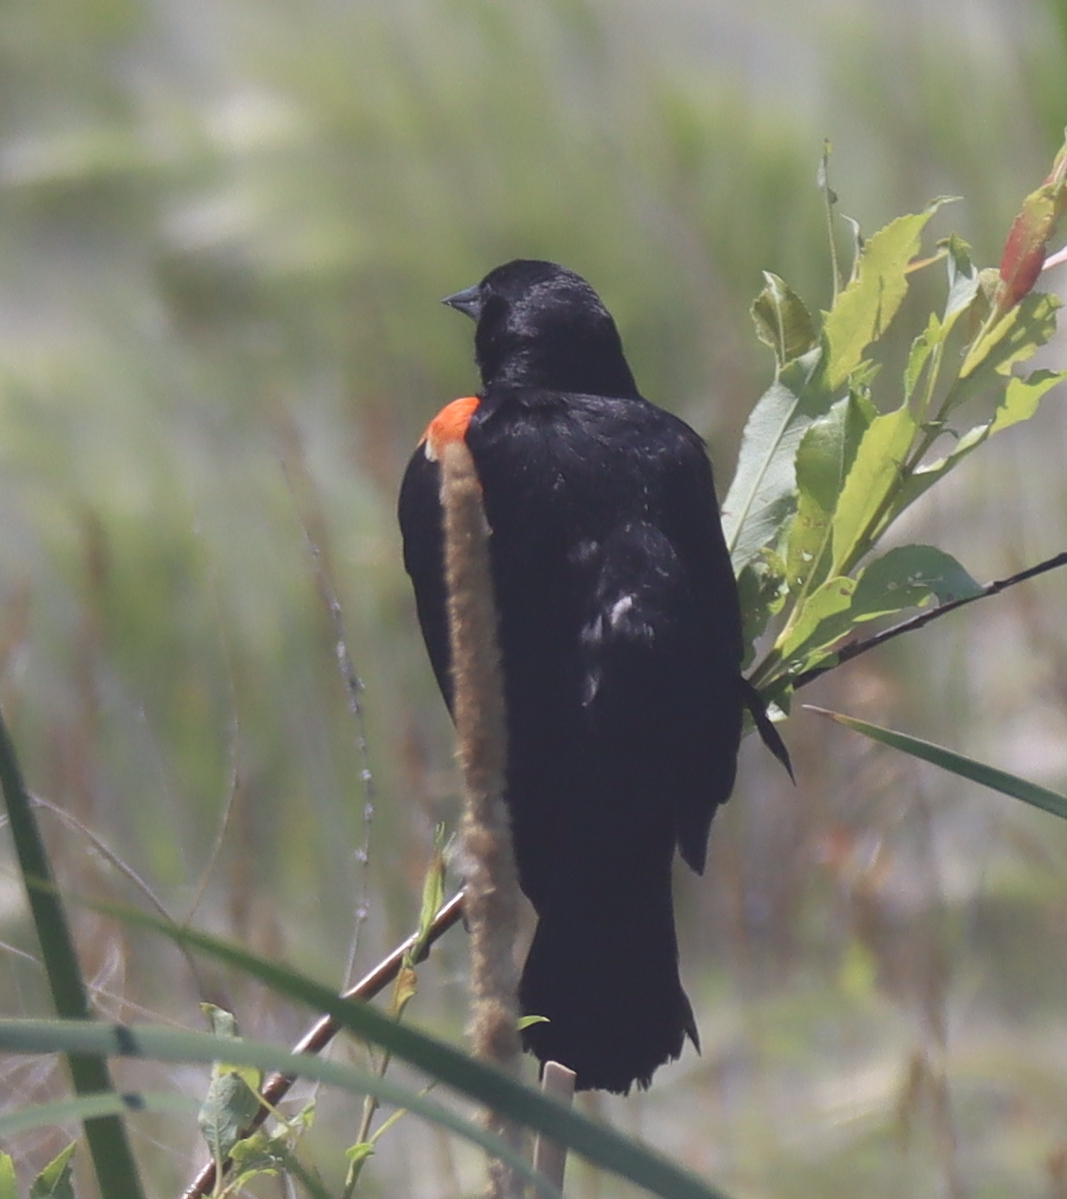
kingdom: Animalia
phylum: Chordata
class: Aves
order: Passeriformes
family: Icteridae
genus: Agelaius
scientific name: Agelaius phoeniceus
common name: Red-winged blackbird
